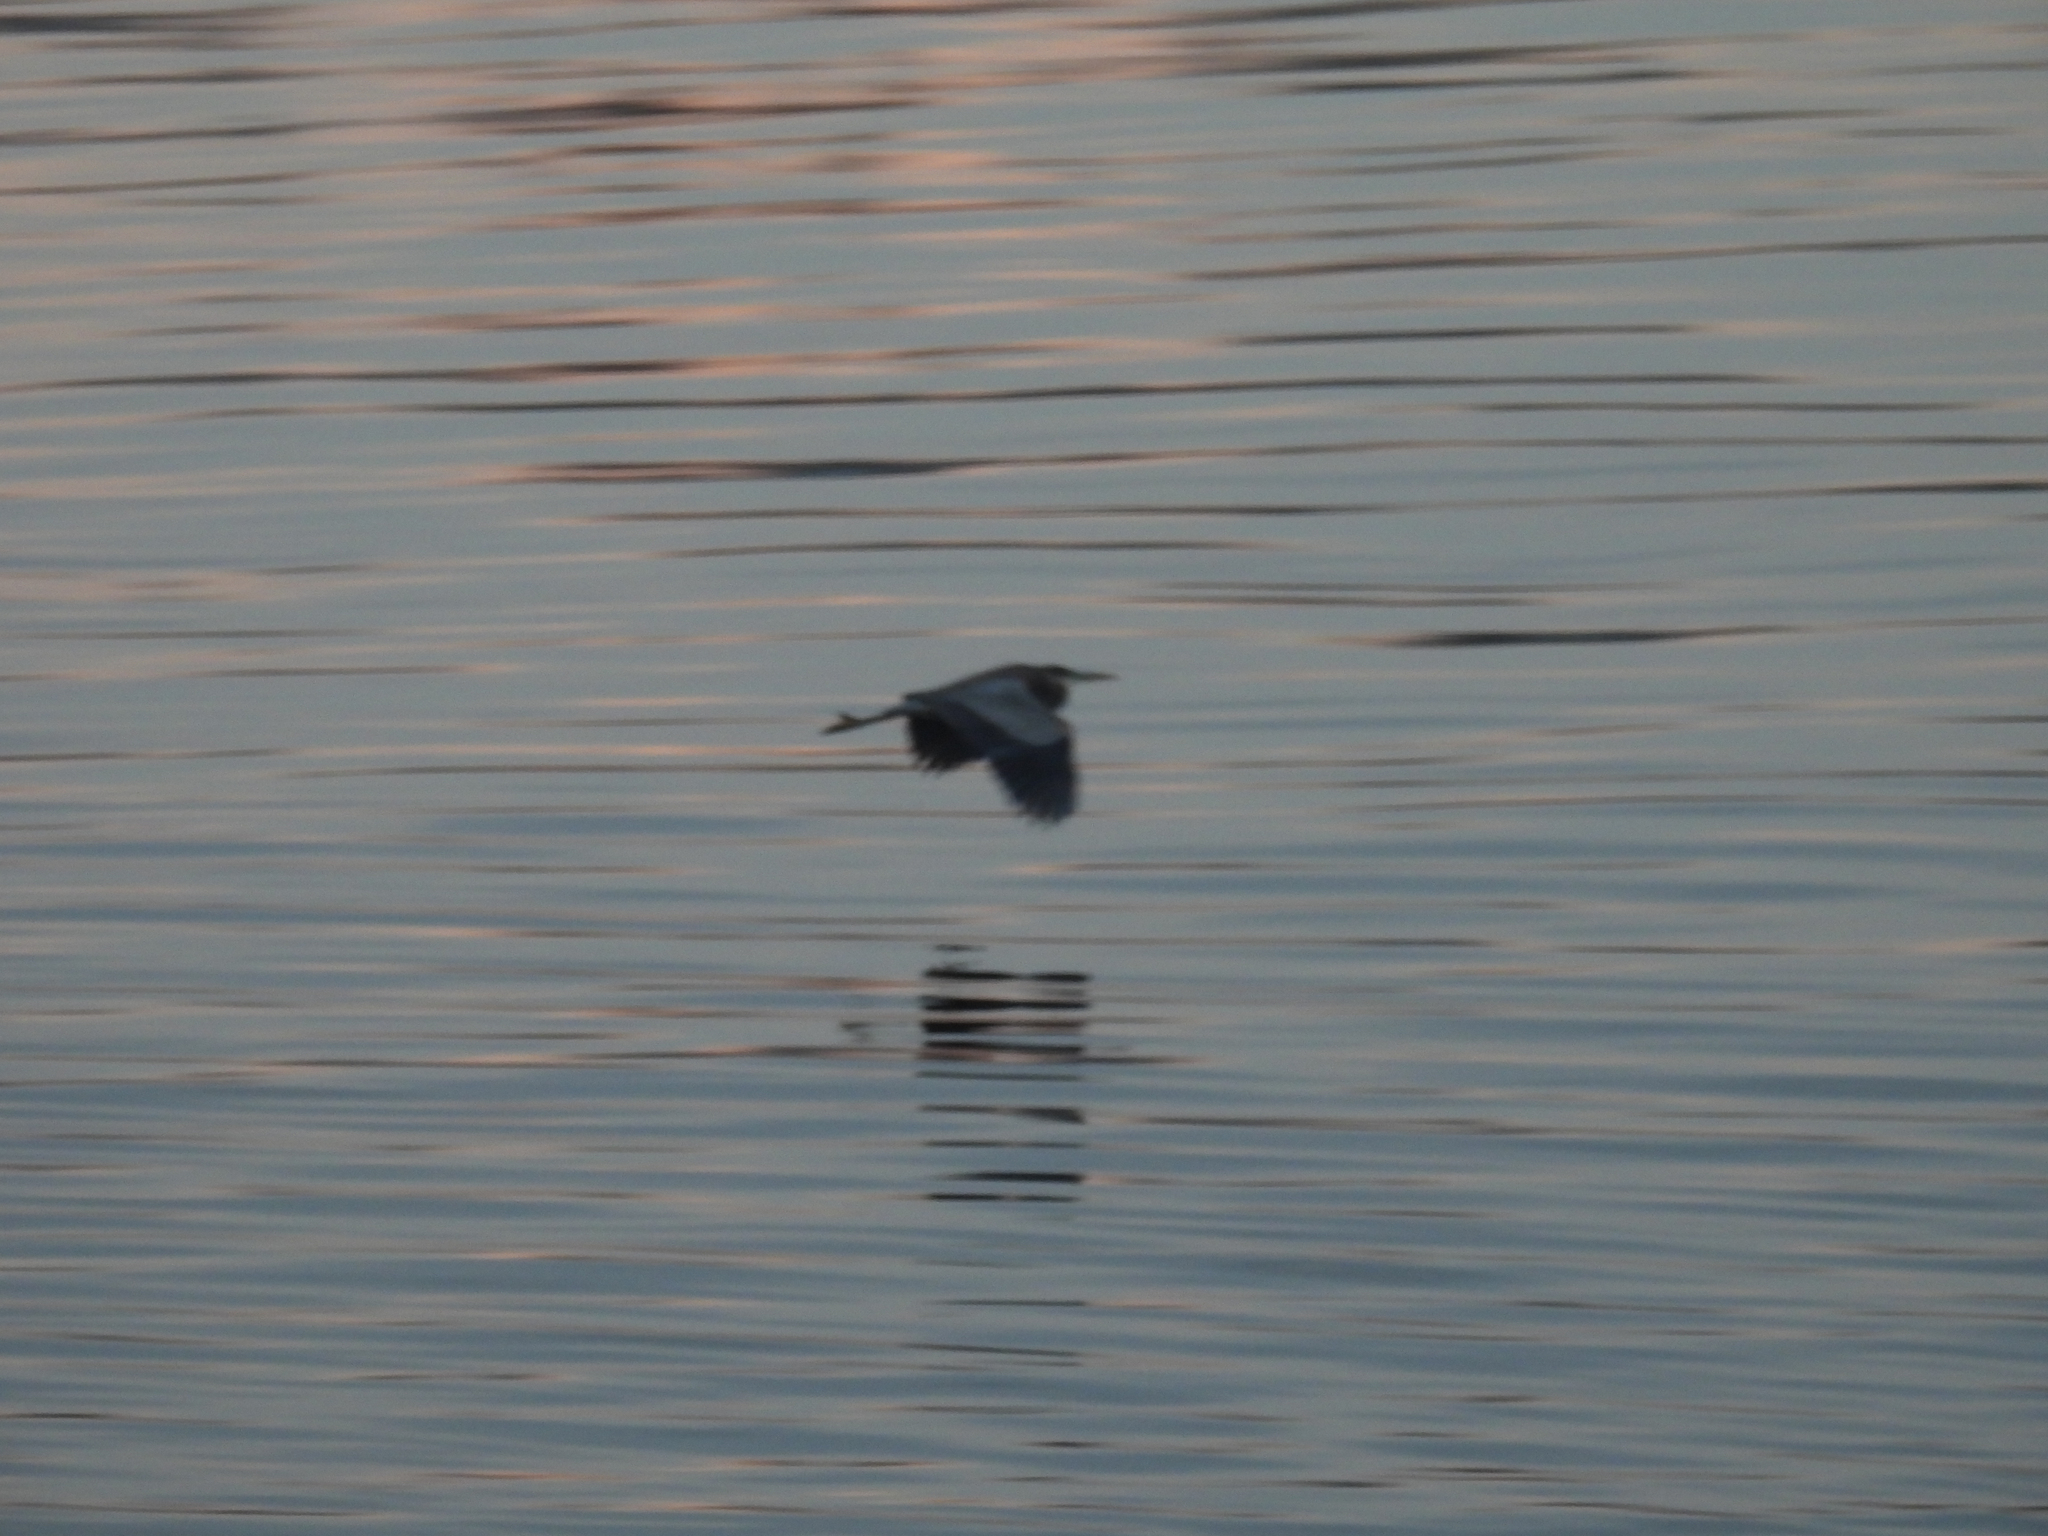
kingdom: Animalia
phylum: Chordata
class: Aves
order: Pelecaniformes
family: Ardeidae
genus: Ardea
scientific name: Ardea herodias
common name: Great blue heron
